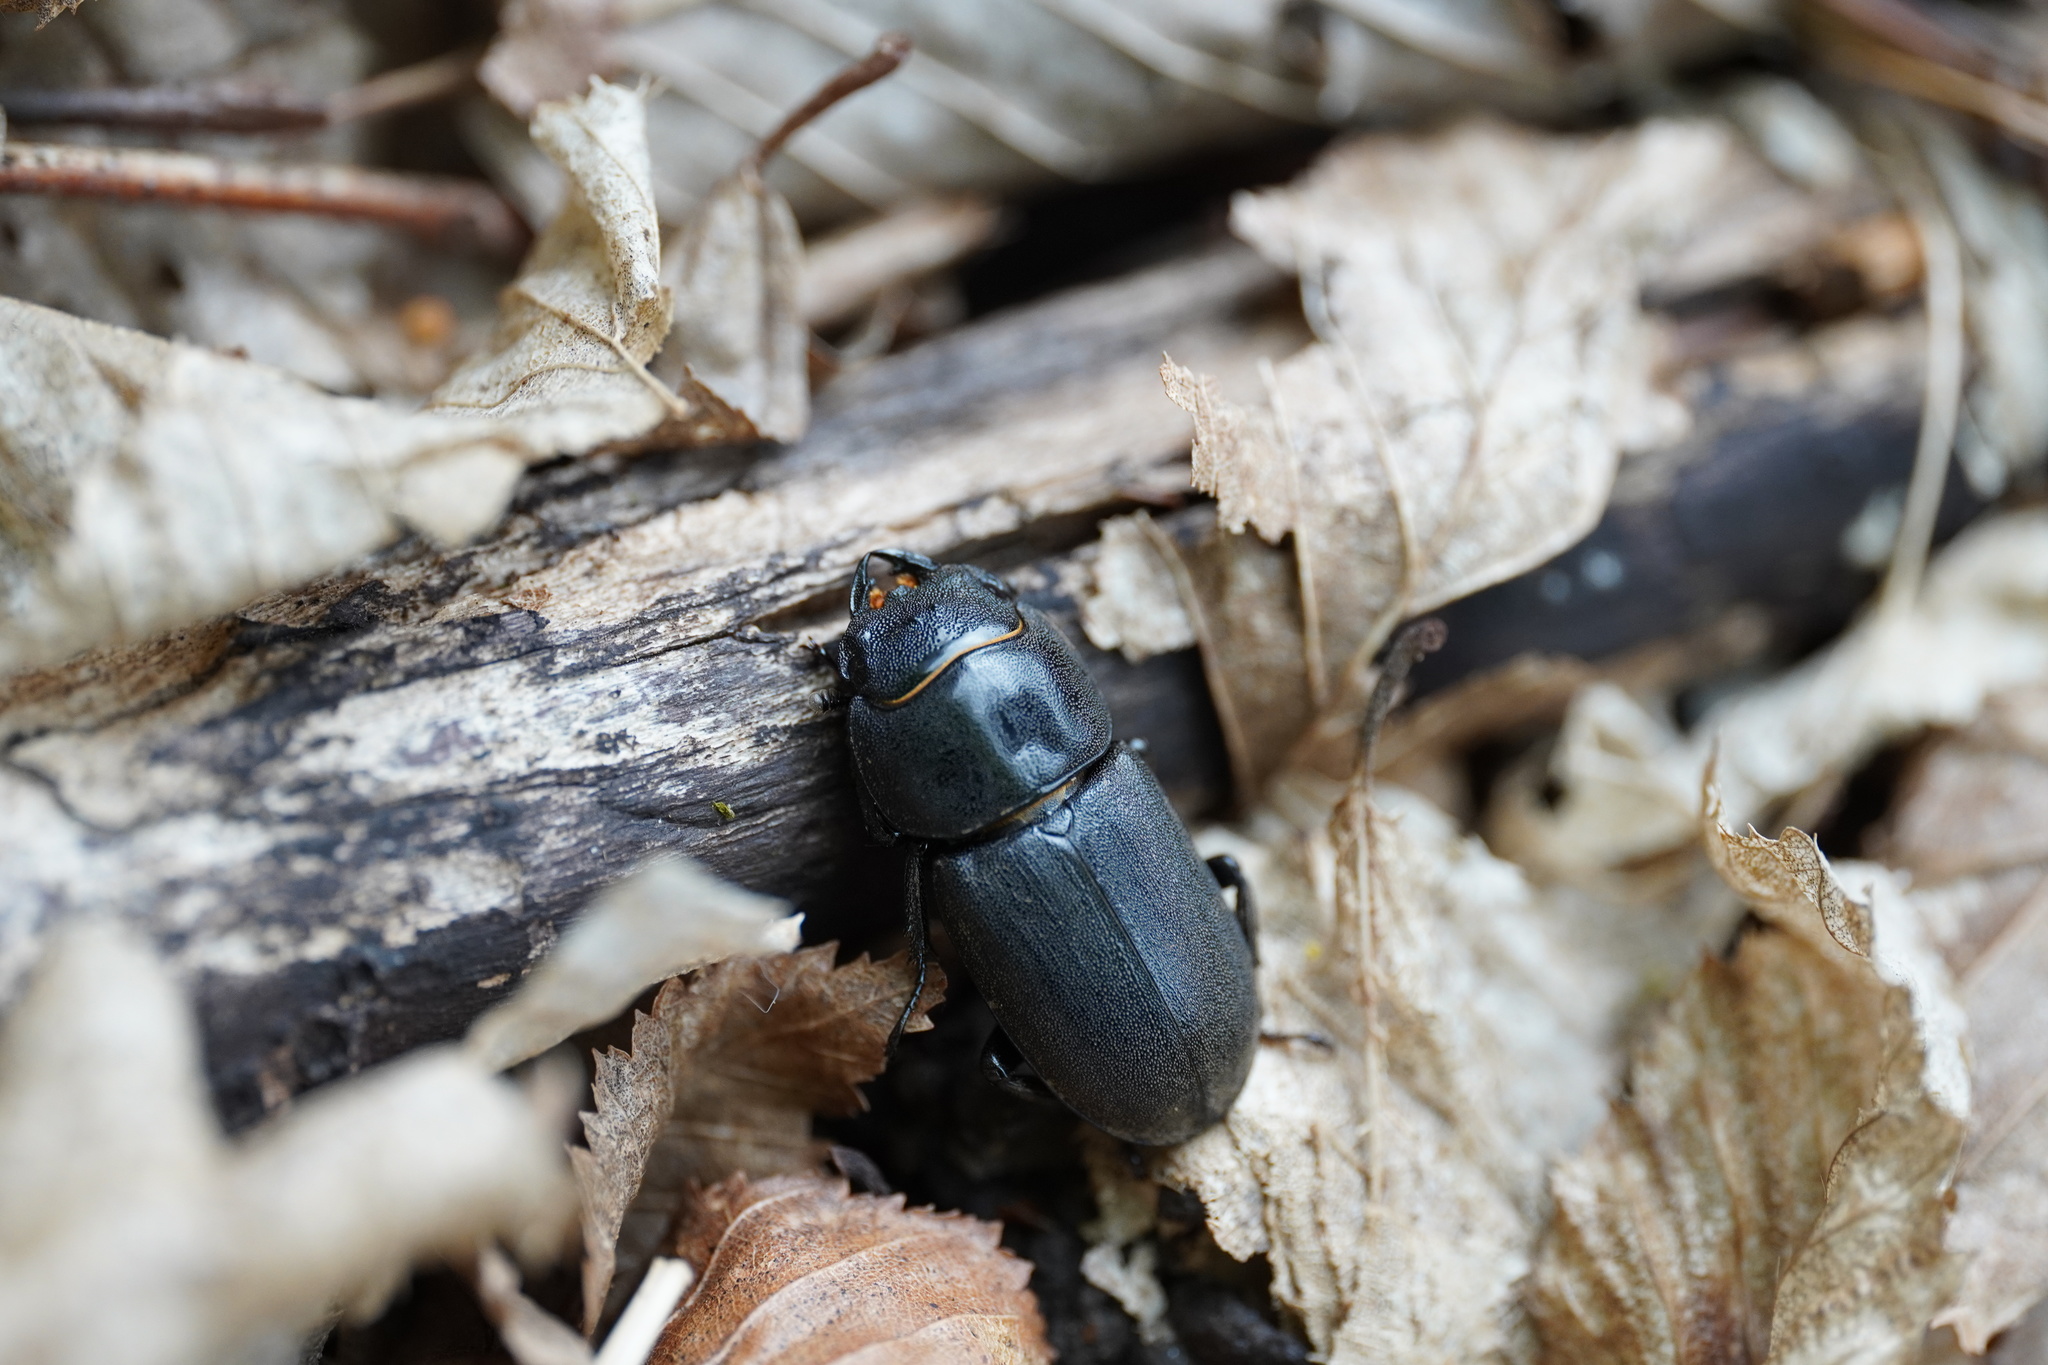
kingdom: Animalia
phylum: Arthropoda
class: Insecta
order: Coleoptera
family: Lucanidae
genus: Dorcus
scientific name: Dorcus parallelipipedus
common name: Lesser stag beetle
